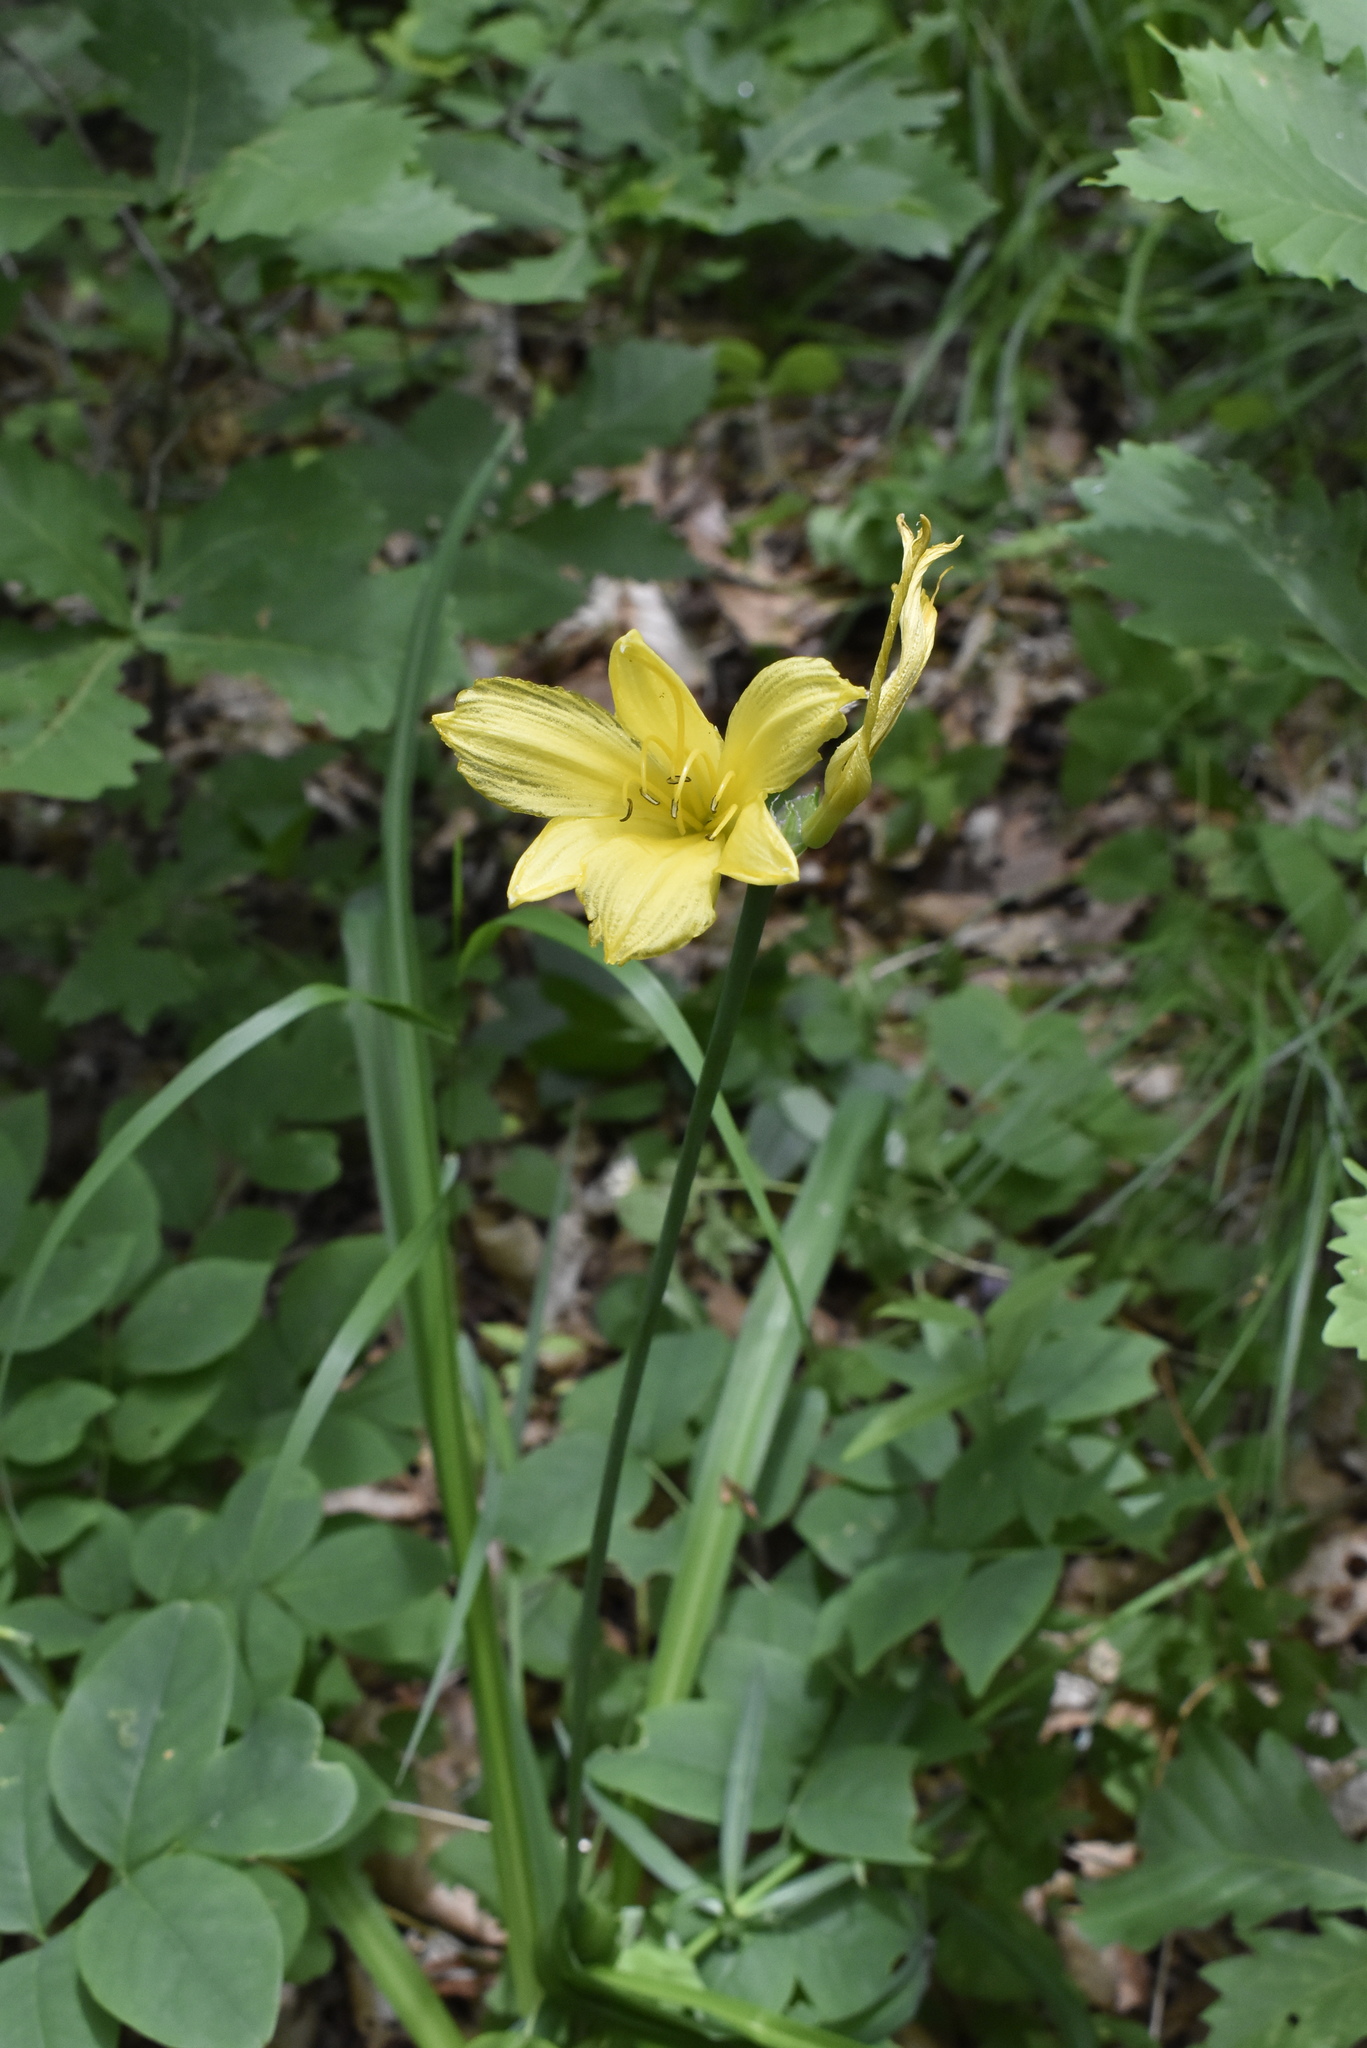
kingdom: Plantae
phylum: Tracheophyta
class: Liliopsida
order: Asparagales
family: Asphodelaceae
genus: Hemerocallis
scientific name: Hemerocallis minor
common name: Small daylily
